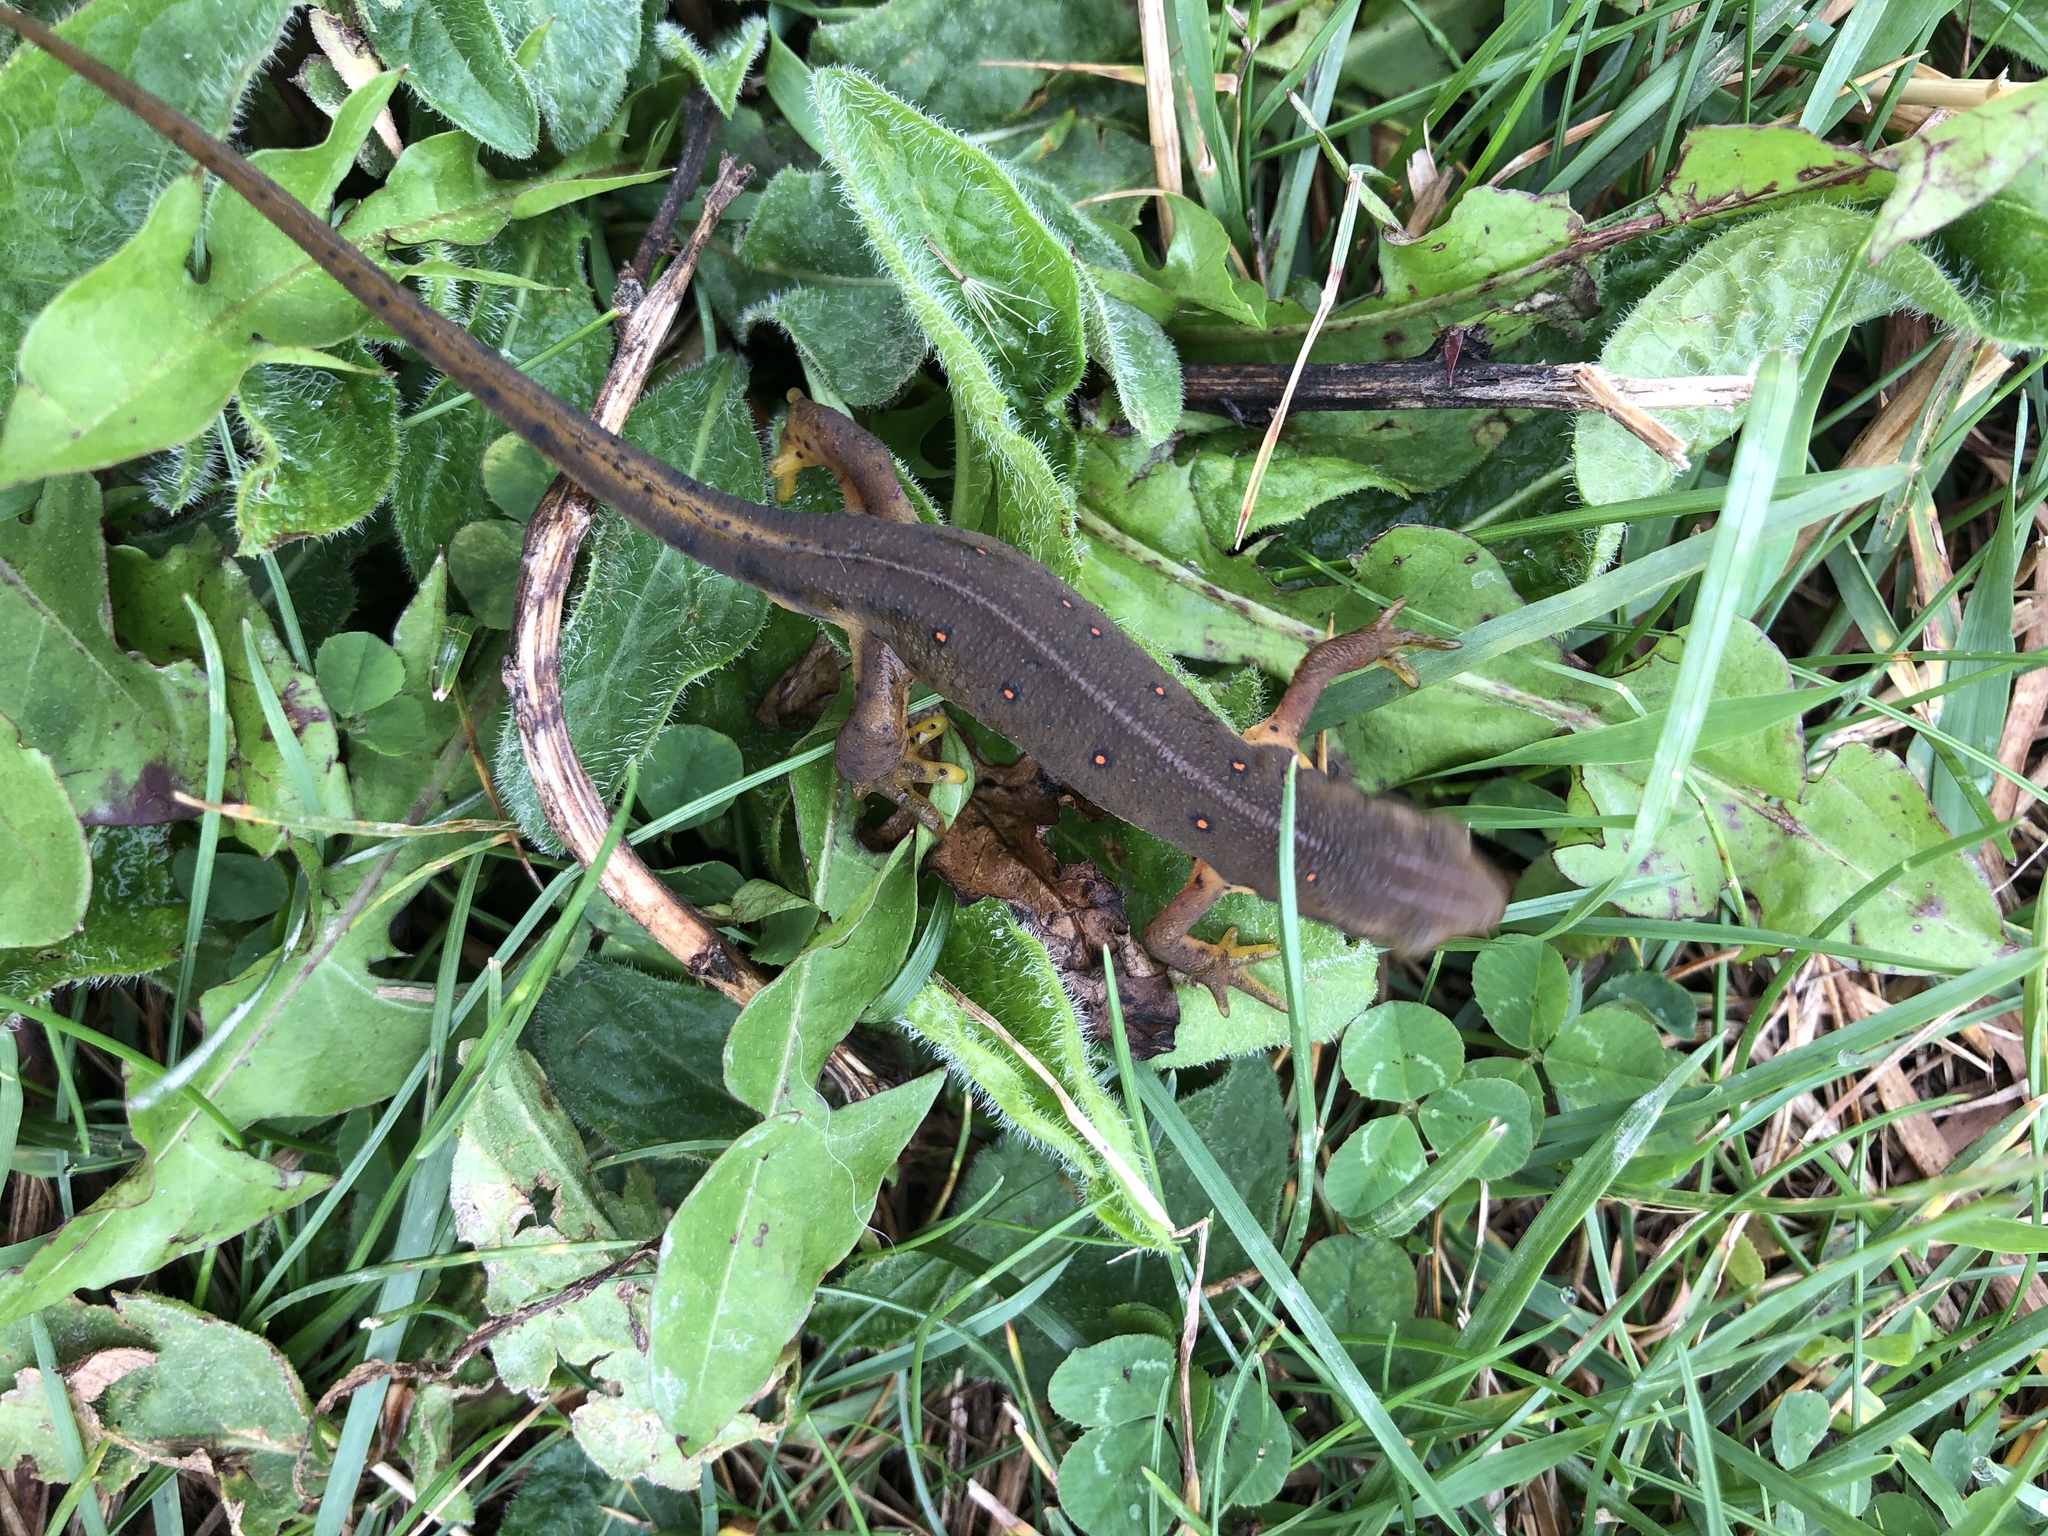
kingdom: Animalia
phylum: Chordata
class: Amphibia
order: Caudata
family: Salamandridae
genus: Notophthalmus
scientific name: Notophthalmus viridescens
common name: Eastern newt
